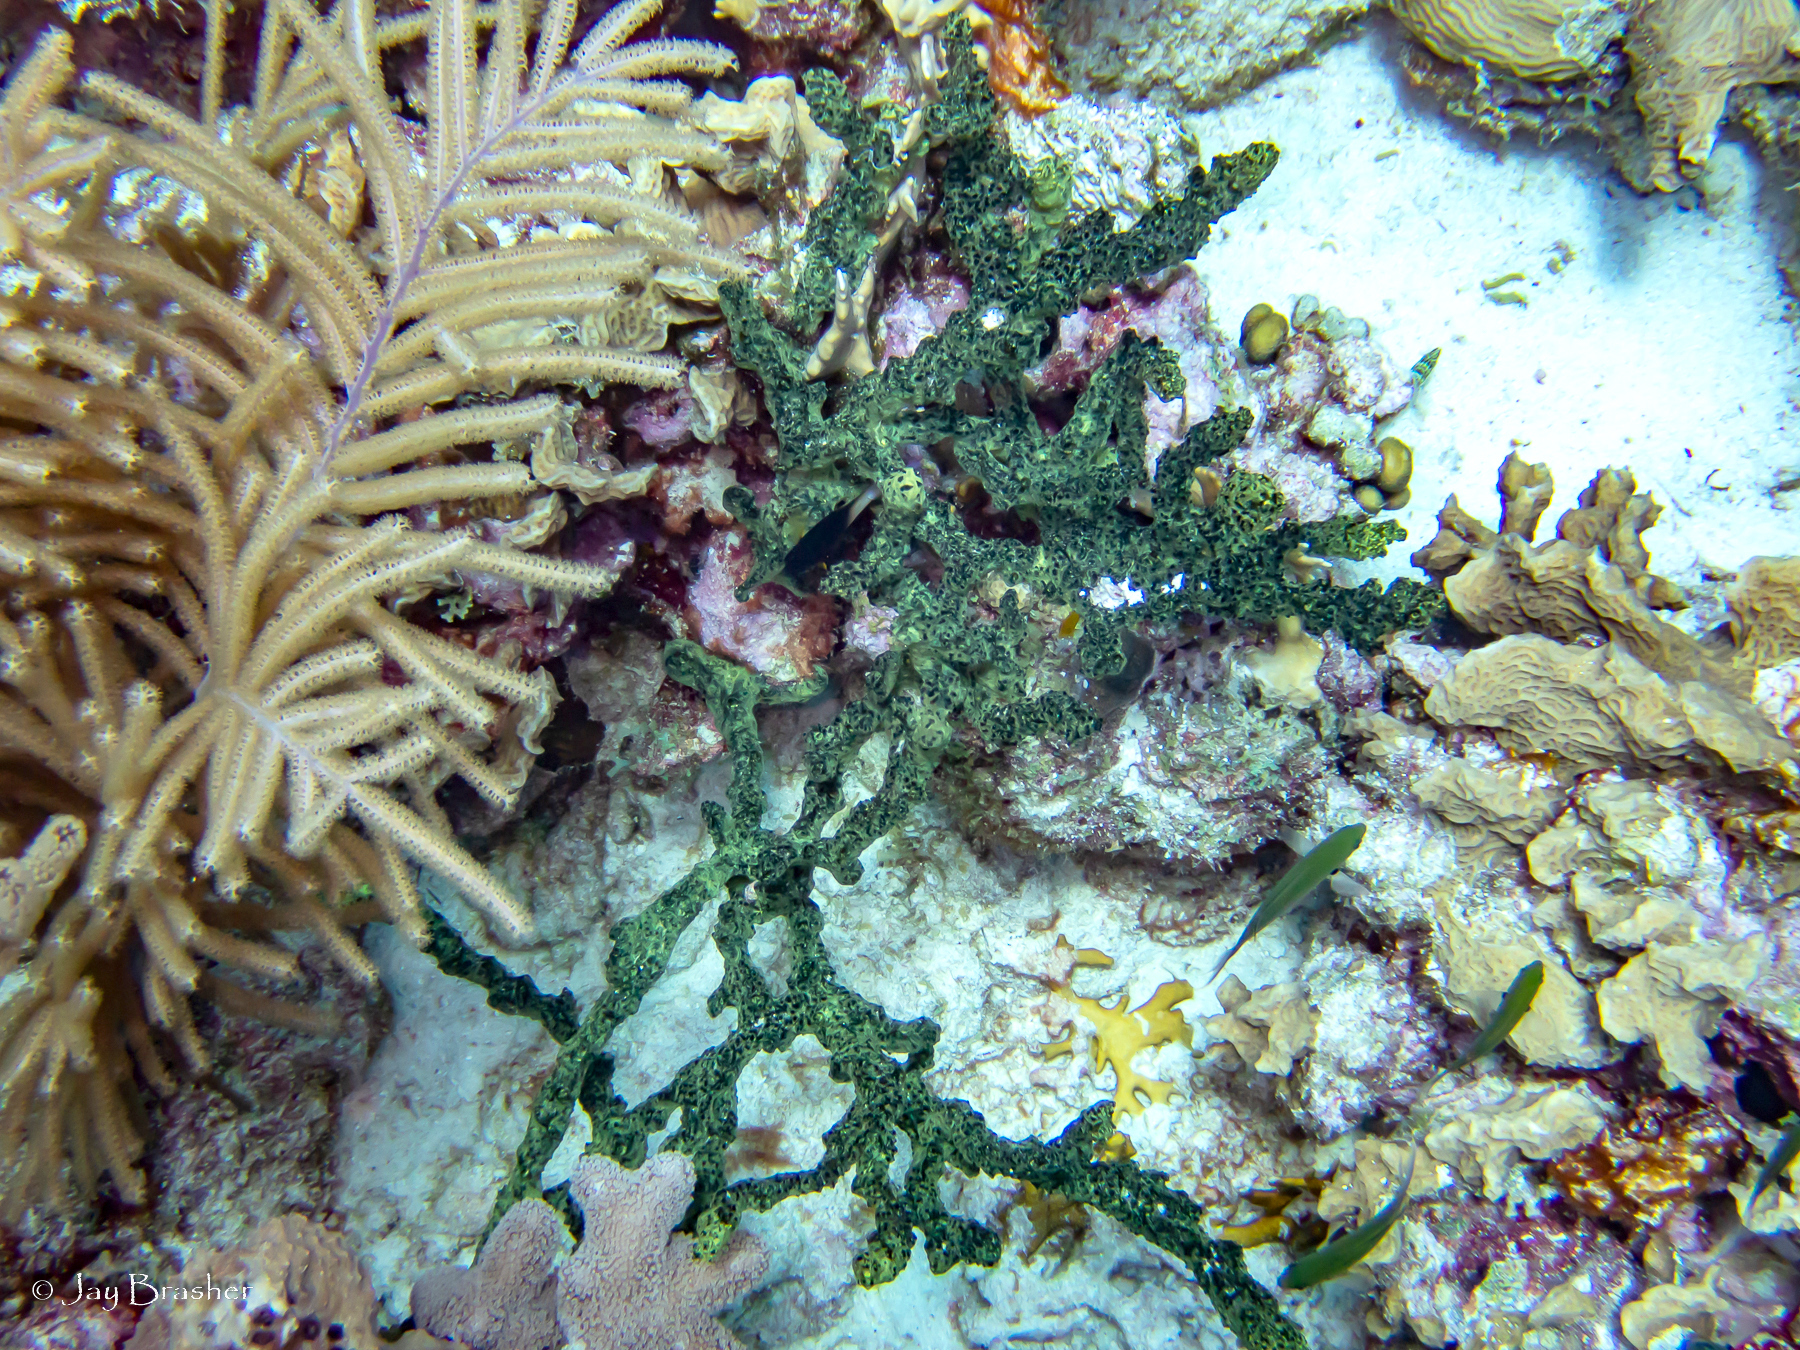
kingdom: Animalia
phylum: Porifera
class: Demospongiae
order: Poecilosclerida
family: Iotrochotidae
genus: Iotrochota
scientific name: Iotrochota birotulata
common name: Purple bleeding sponge
